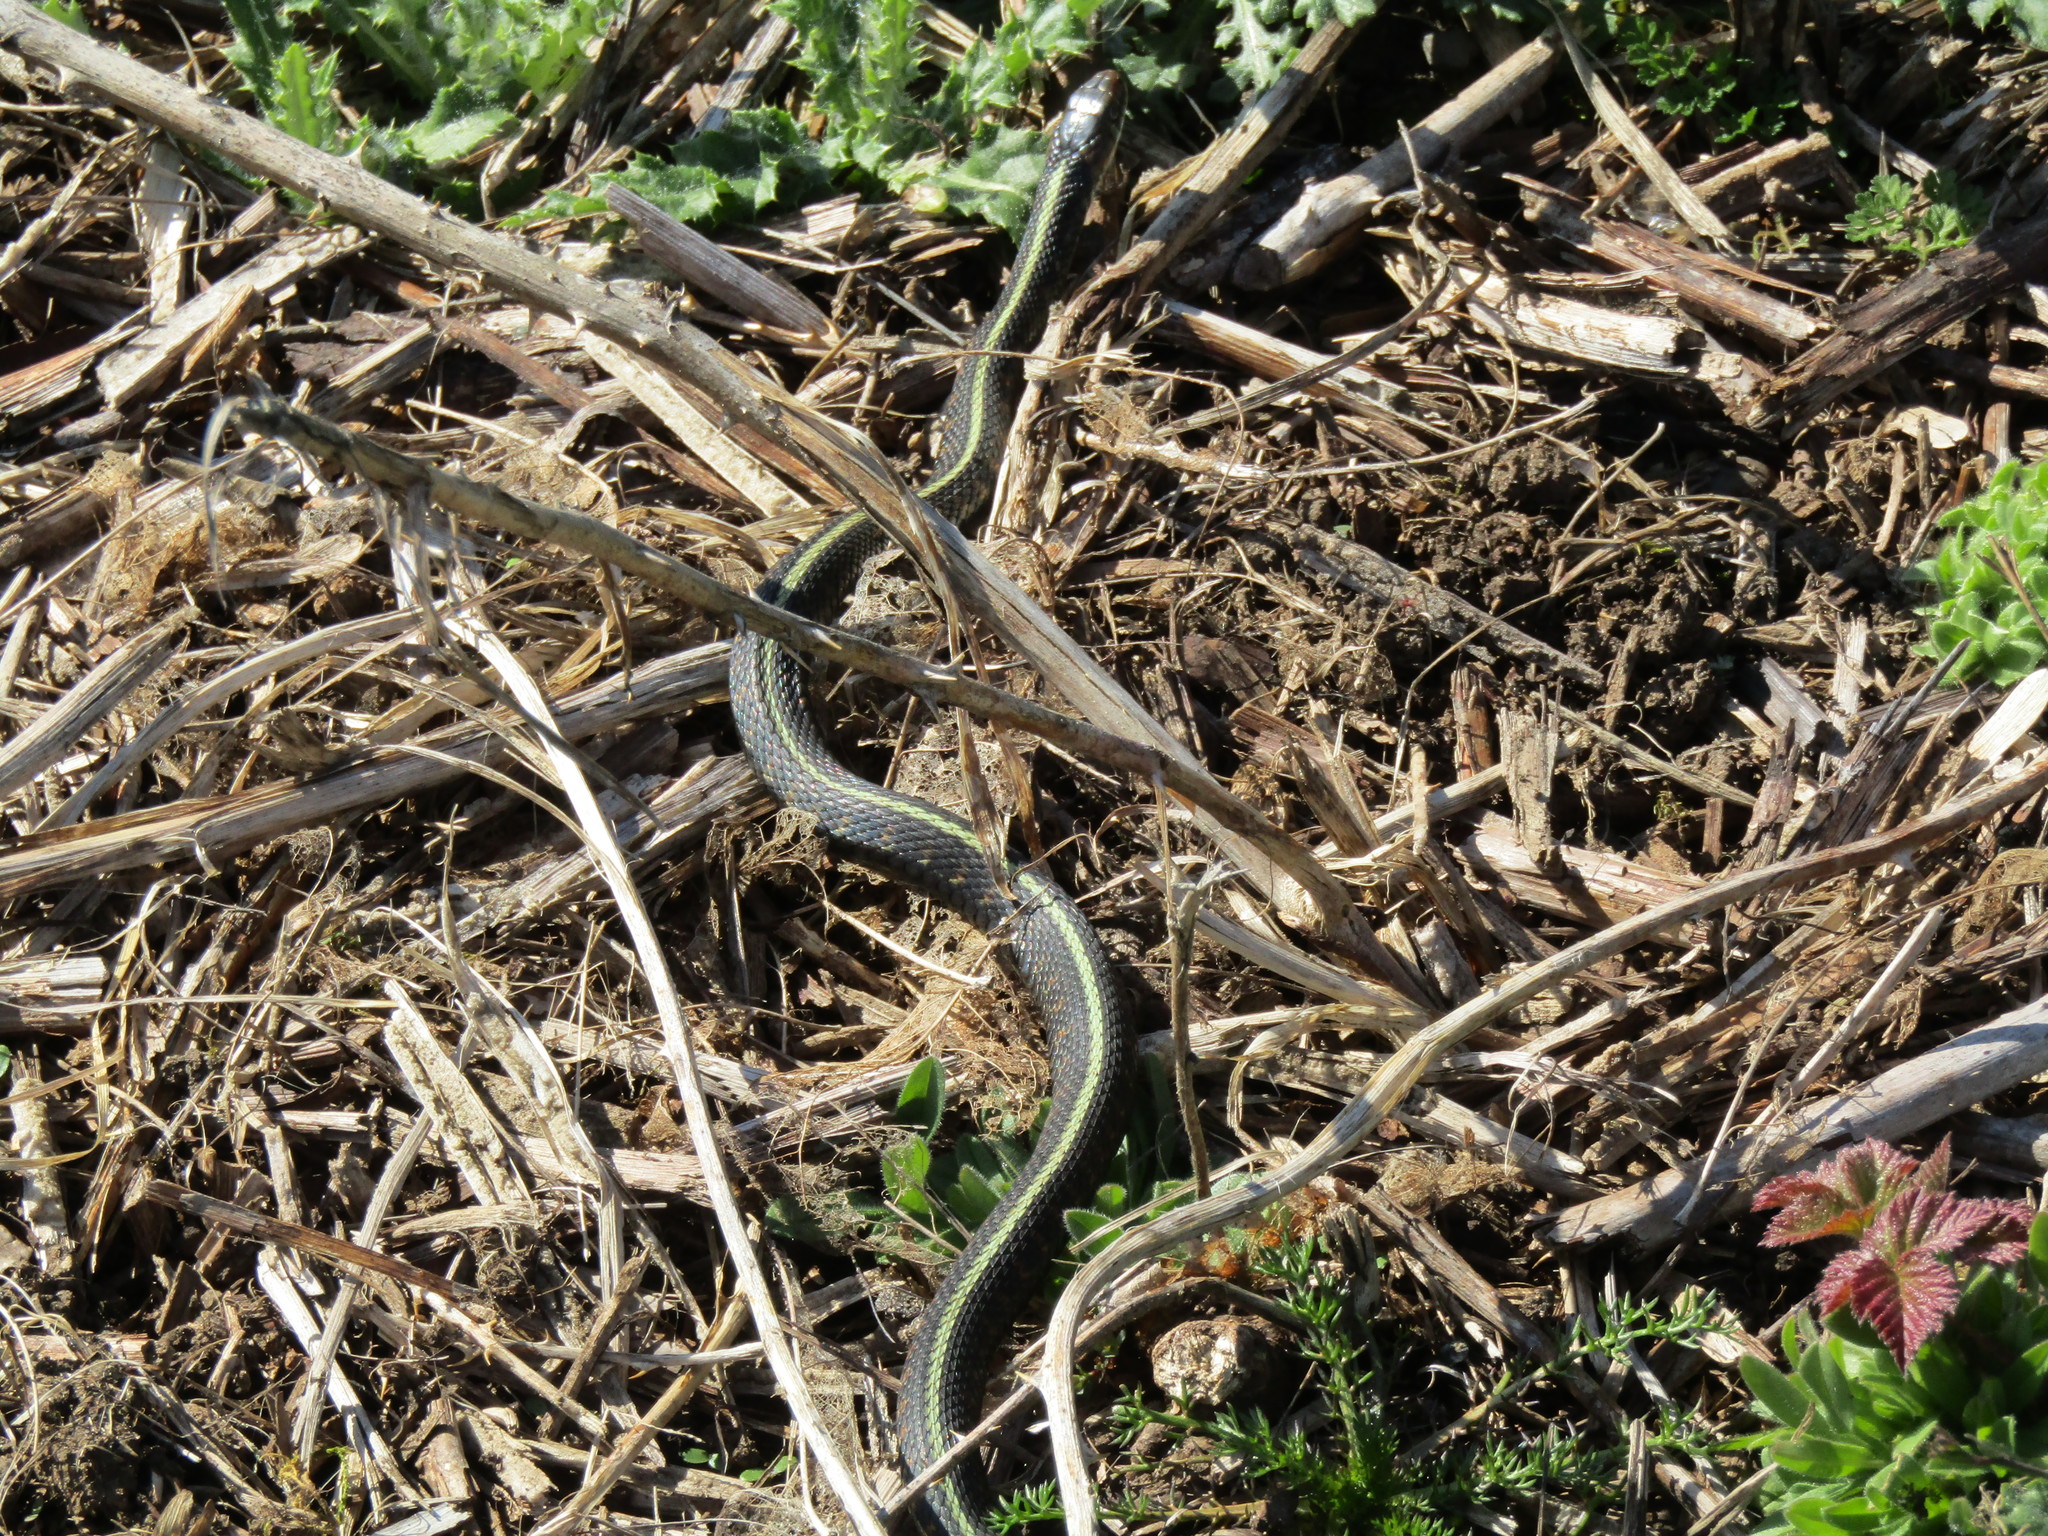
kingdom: Animalia
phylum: Chordata
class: Squamata
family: Colubridae
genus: Thamnophis
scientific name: Thamnophis sirtalis
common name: Common garter snake
